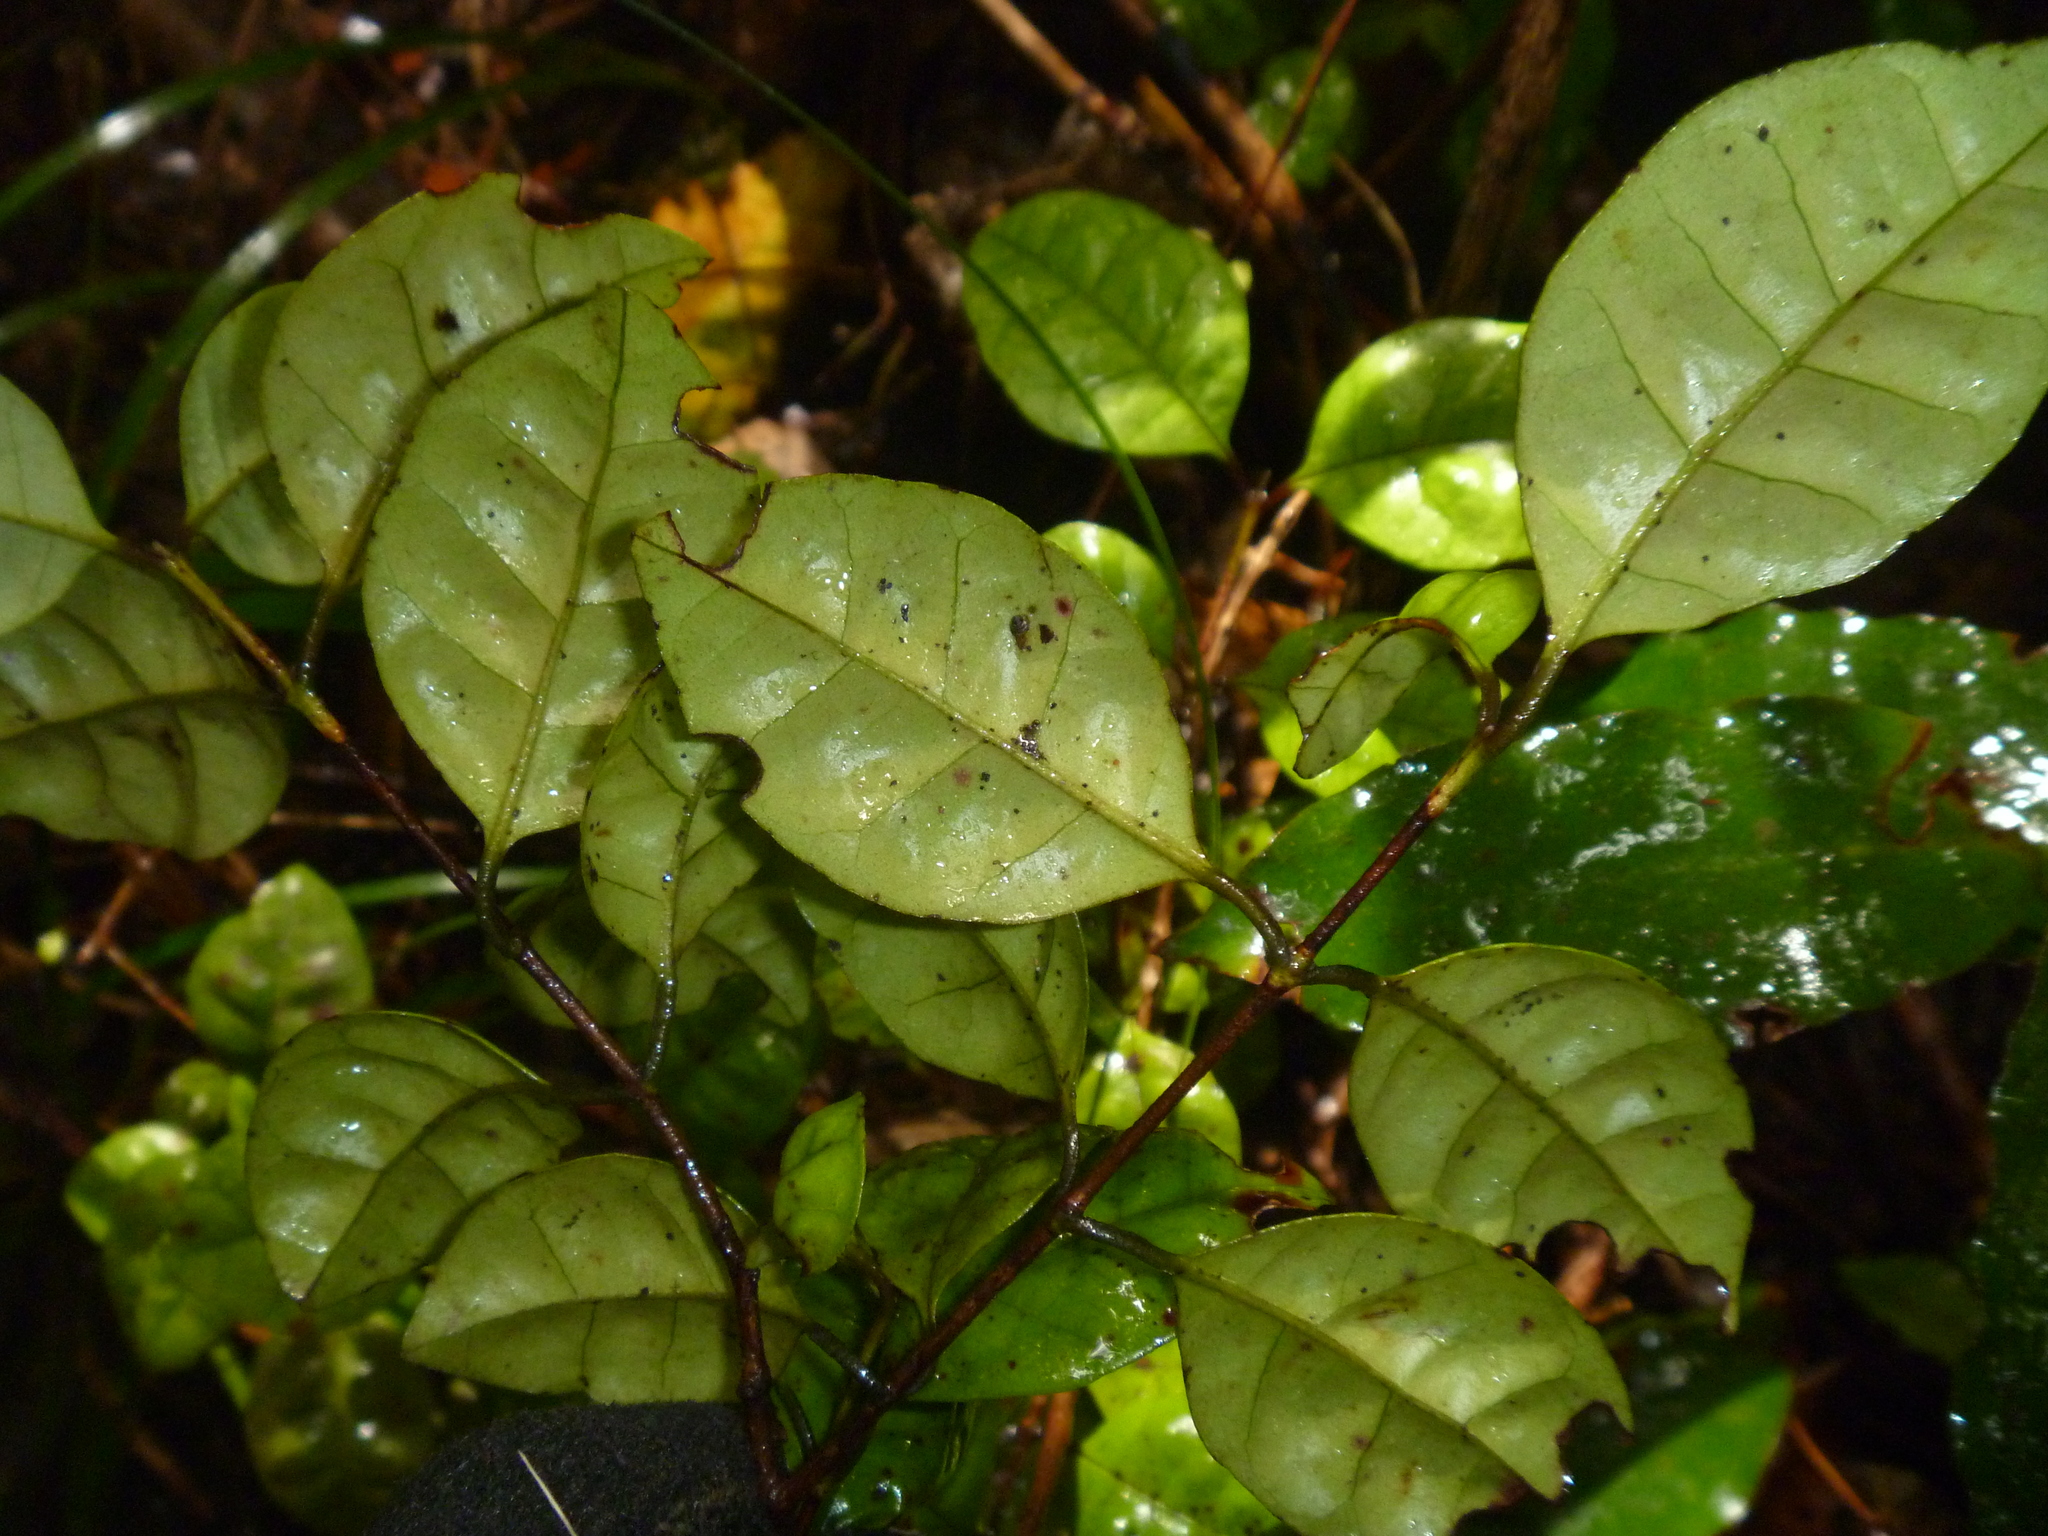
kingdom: Plantae
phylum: Tracheophyta
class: Magnoliopsida
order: Myrtales
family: Myrtaceae
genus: Lophomyrtus
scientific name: Lophomyrtus bullata
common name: Rama rama
